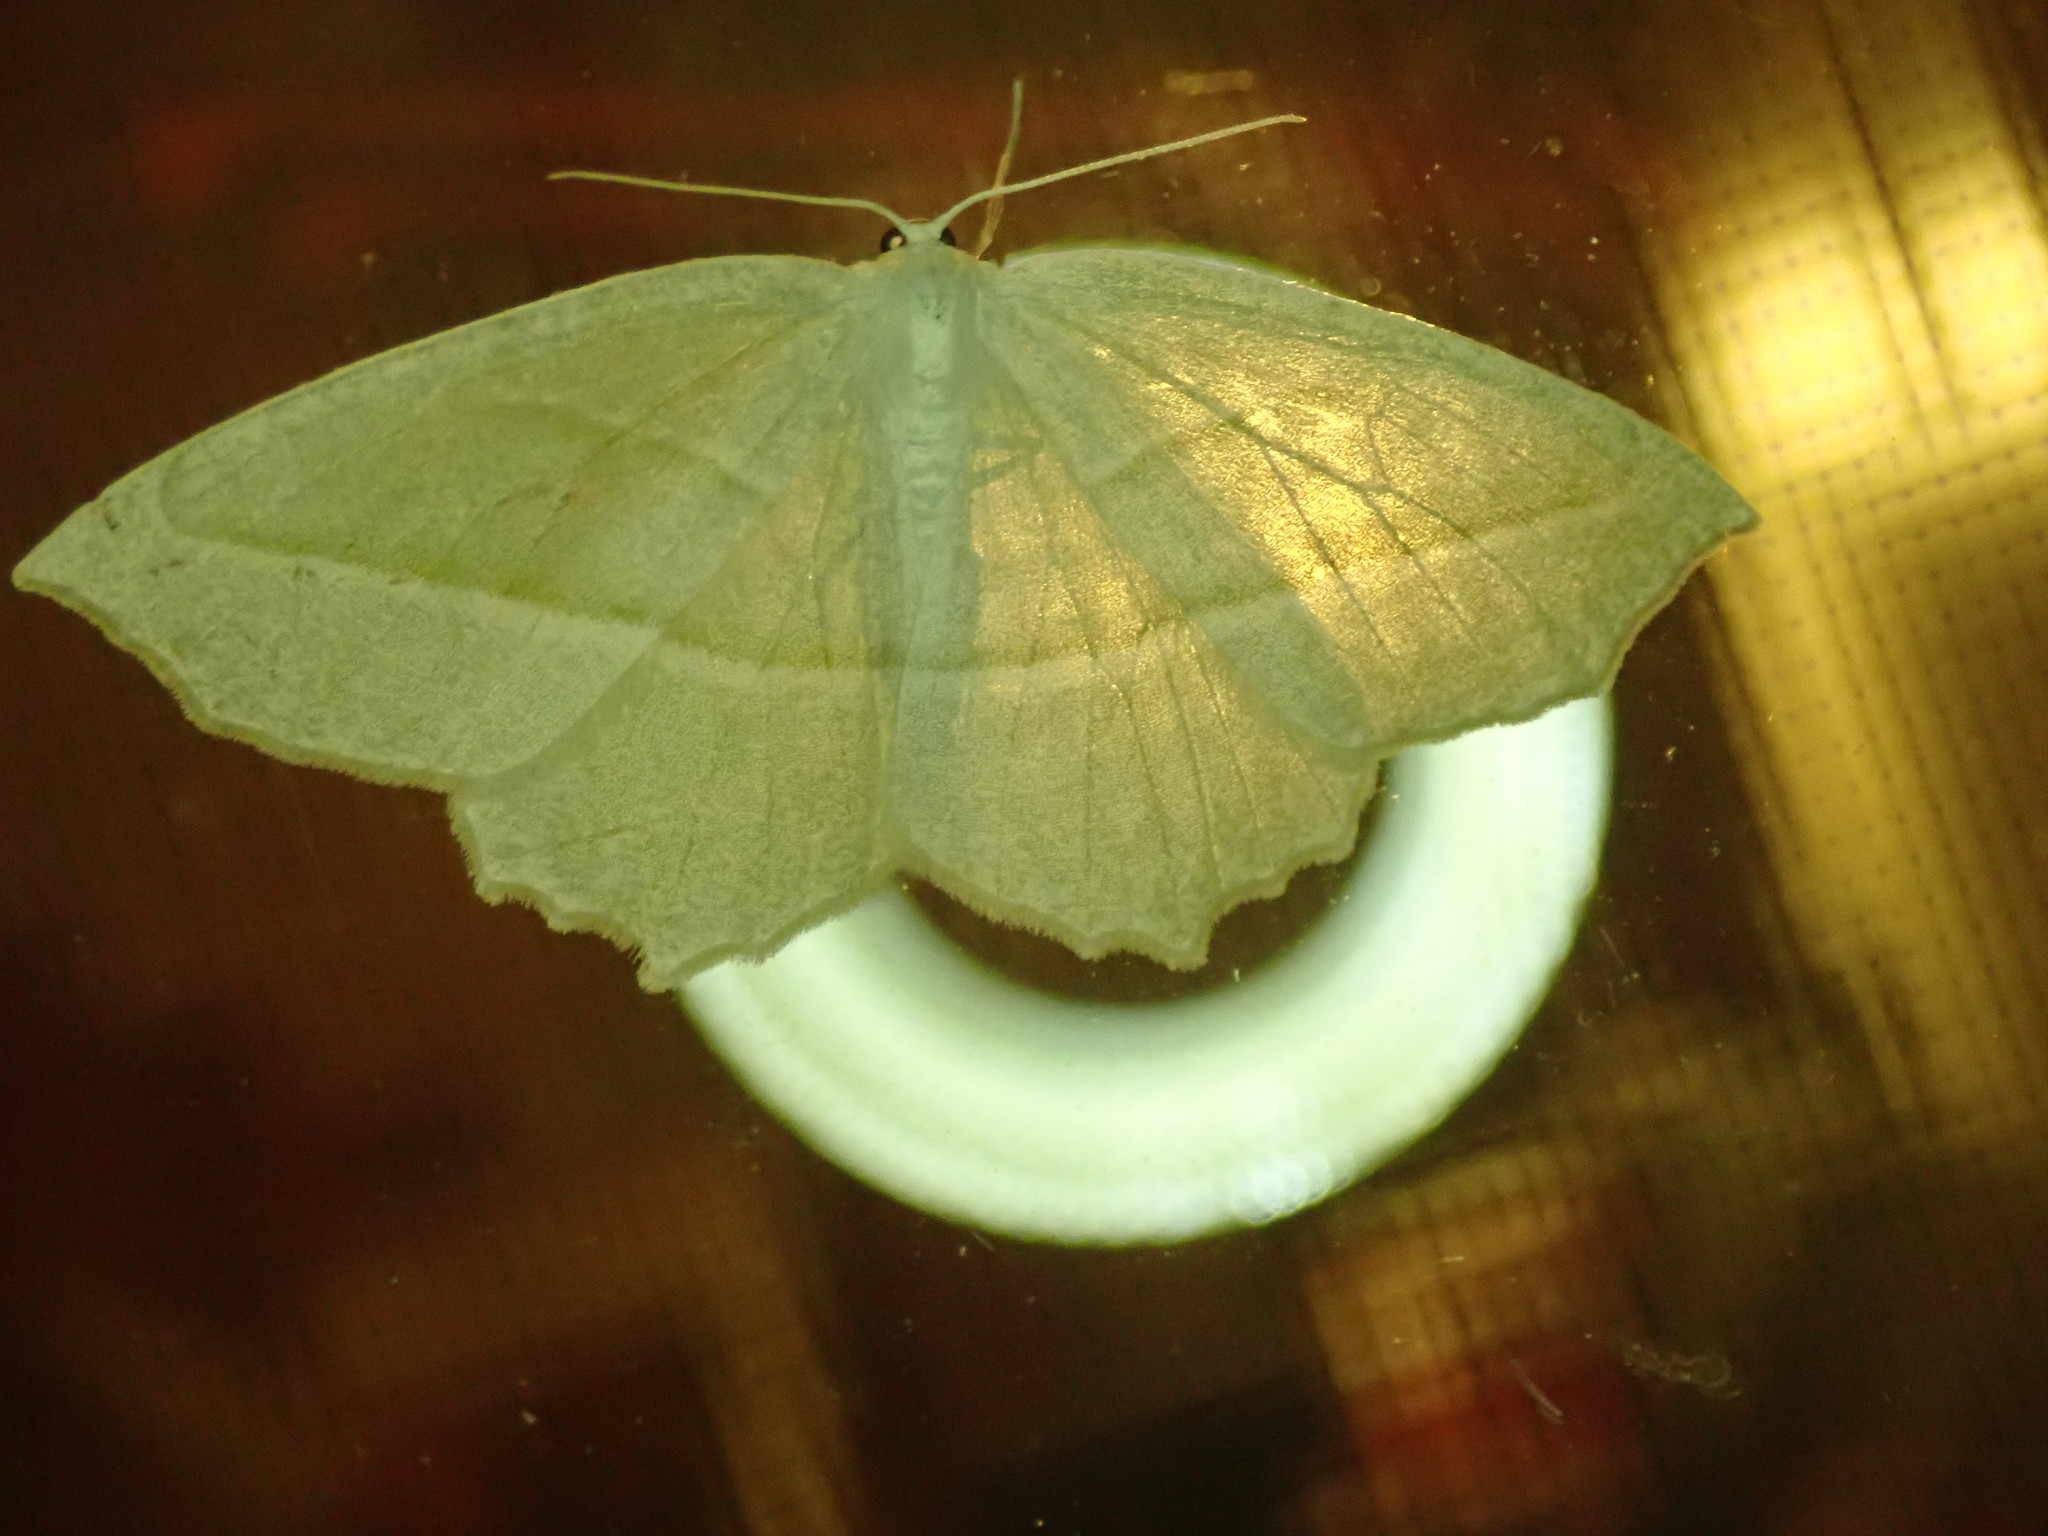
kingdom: Animalia
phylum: Arthropoda
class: Insecta
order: Lepidoptera
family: Geometridae
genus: Campaea
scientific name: Campaea perlata
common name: Fringed looper
